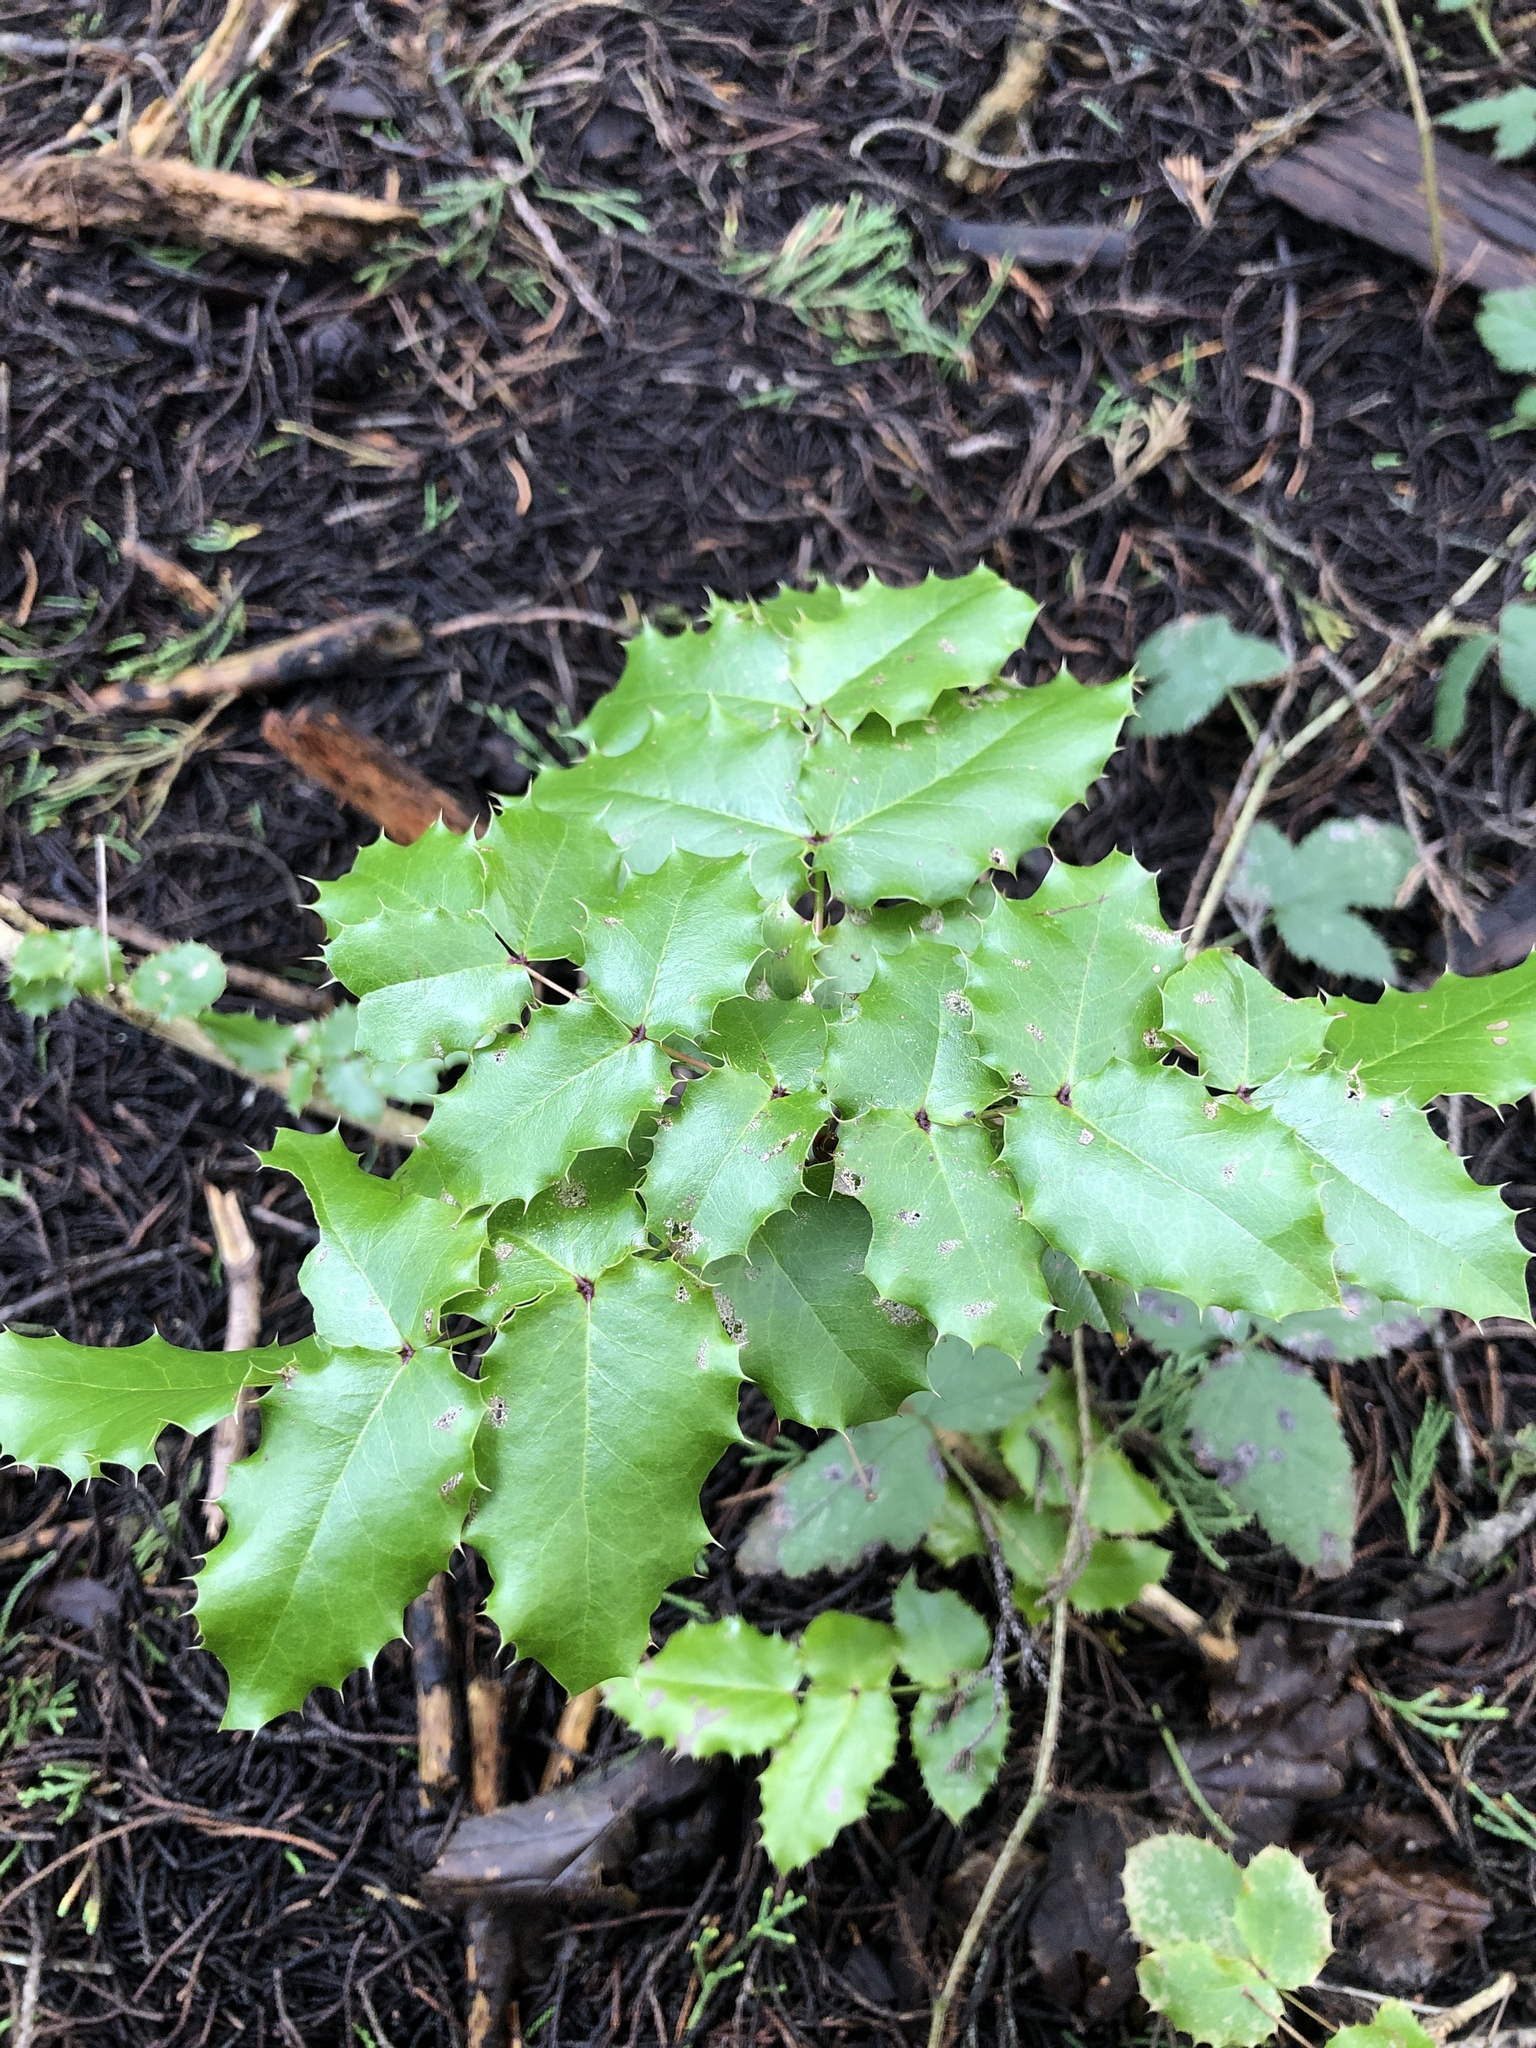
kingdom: Plantae
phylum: Tracheophyta
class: Magnoliopsida
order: Ranunculales
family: Berberidaceae
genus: Mahonia
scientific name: Mahonia
